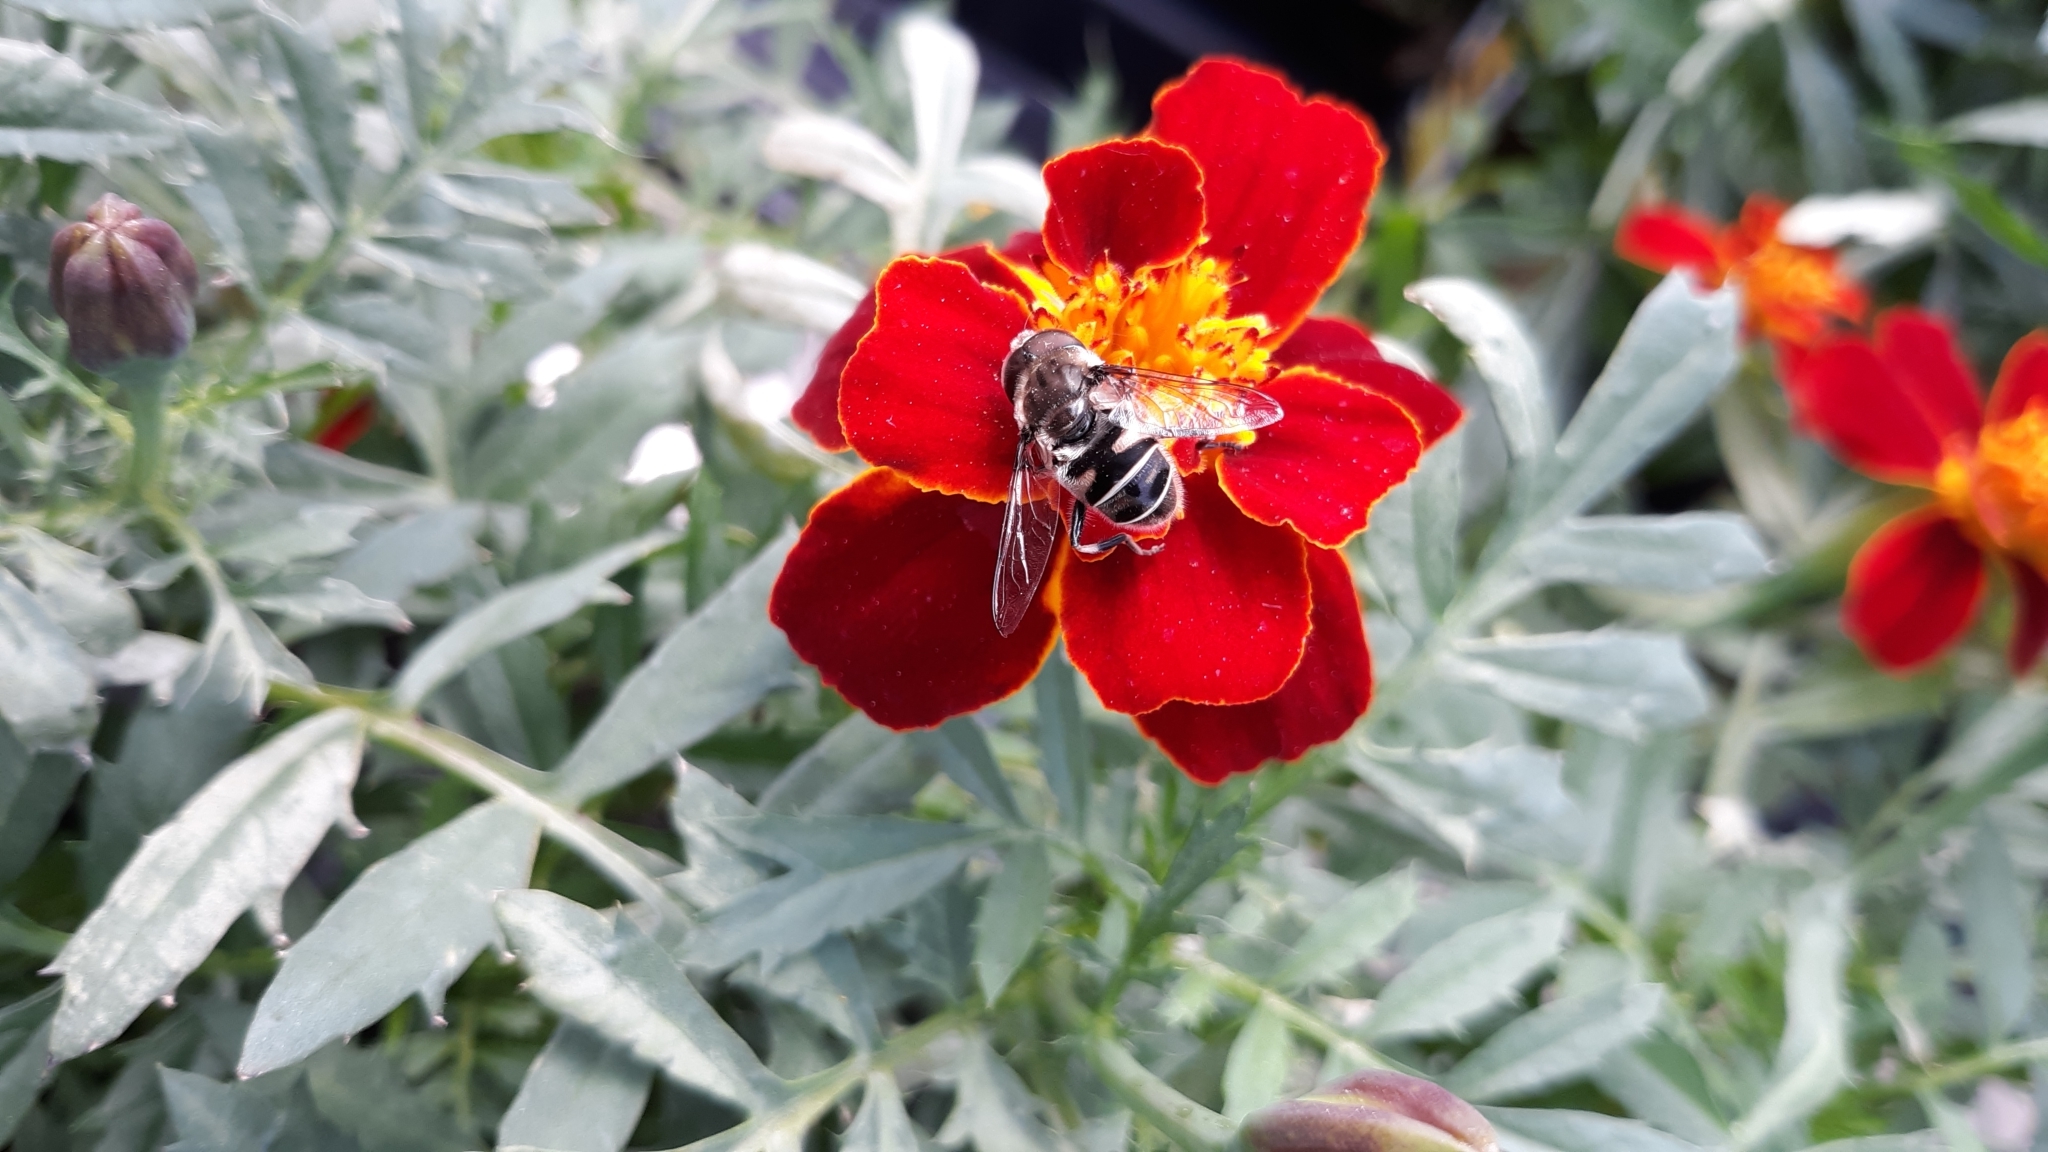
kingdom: Animalia
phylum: Arthropoda
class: Insecta
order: Diptera
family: Syrphidae
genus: Eristalis
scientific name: Eristalis dimidiata
